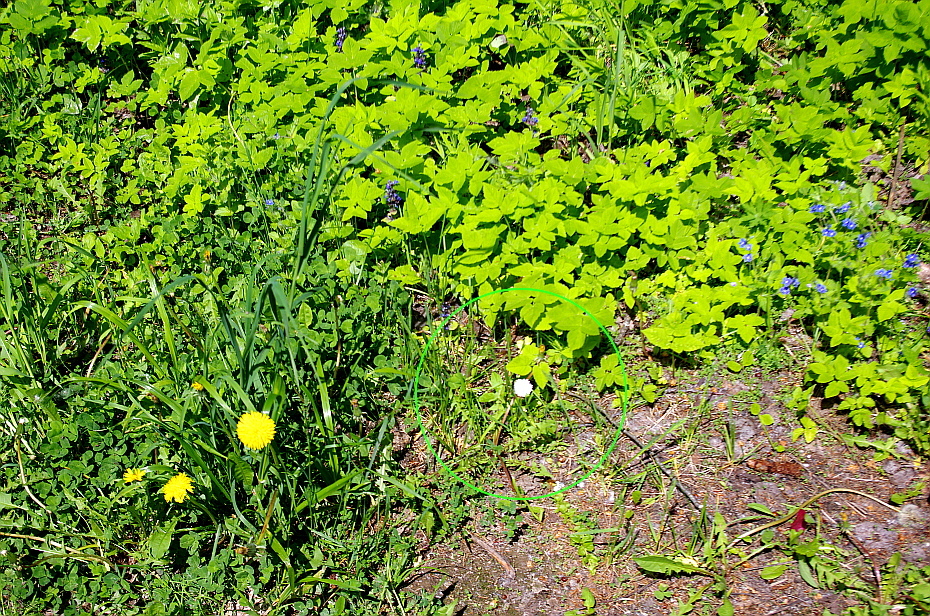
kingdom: Plantae
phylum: Tracheophyta
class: Magnoliopsida
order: Asterales
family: Asteraceae
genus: Bellis
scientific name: Bellis perennis
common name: Lawndaisy
